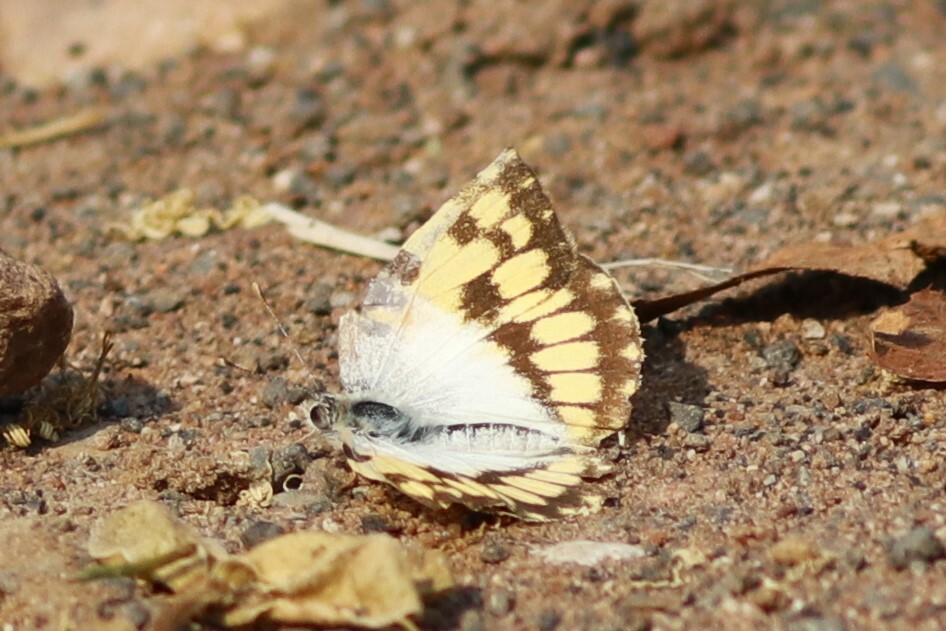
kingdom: Animalia
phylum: Arthropoda
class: Insecta
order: Lepidoptera
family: Pieridae
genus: Colotis
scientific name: Colotis vesta
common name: Veined golden arab
